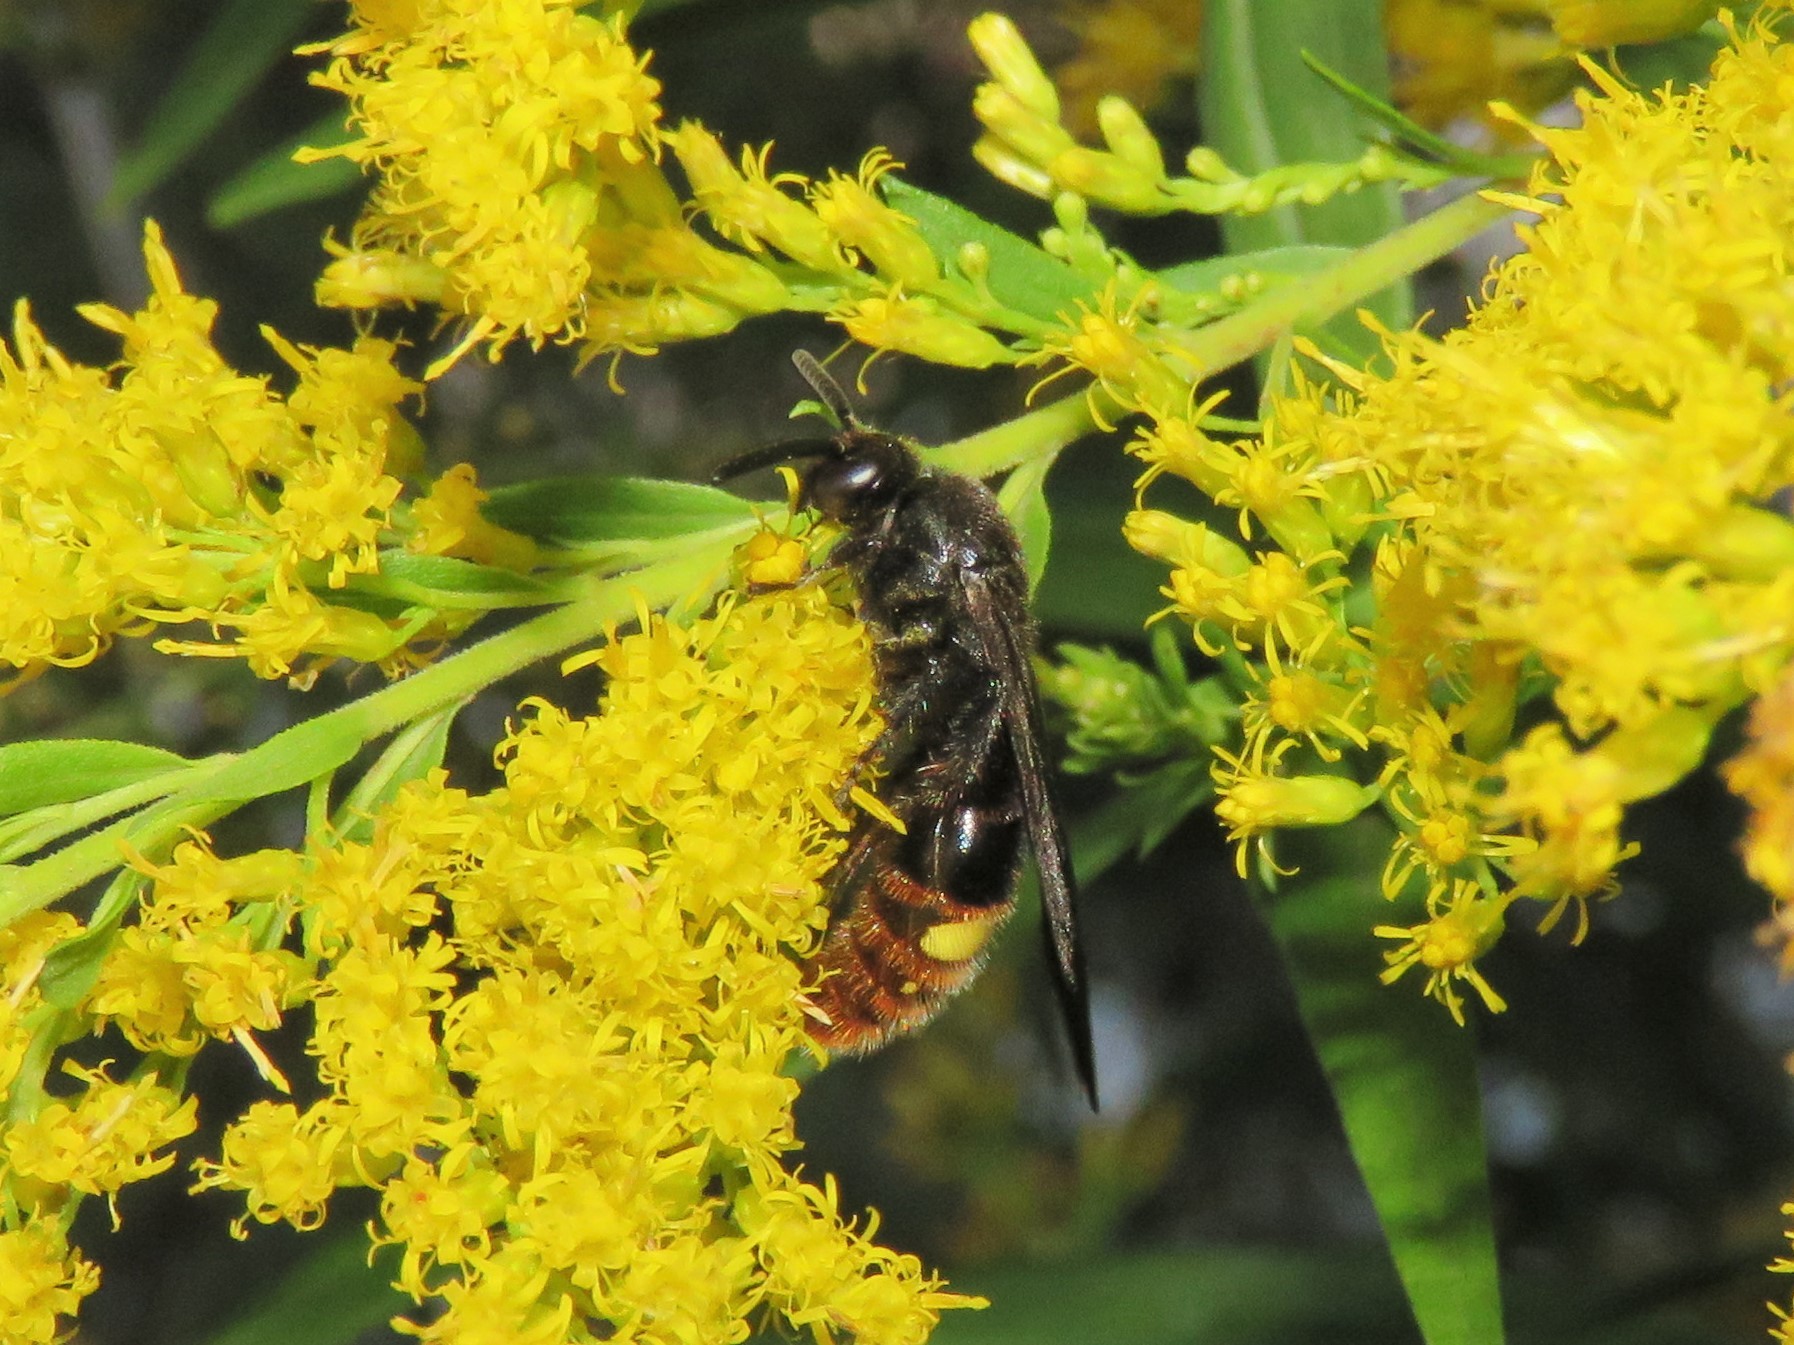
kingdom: Animalia
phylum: Arthropoda
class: Insecta
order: Hymenoptera
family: Scoliidae
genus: Scolia
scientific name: Scolia dubia
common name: Blue-winged scoliid wasp
